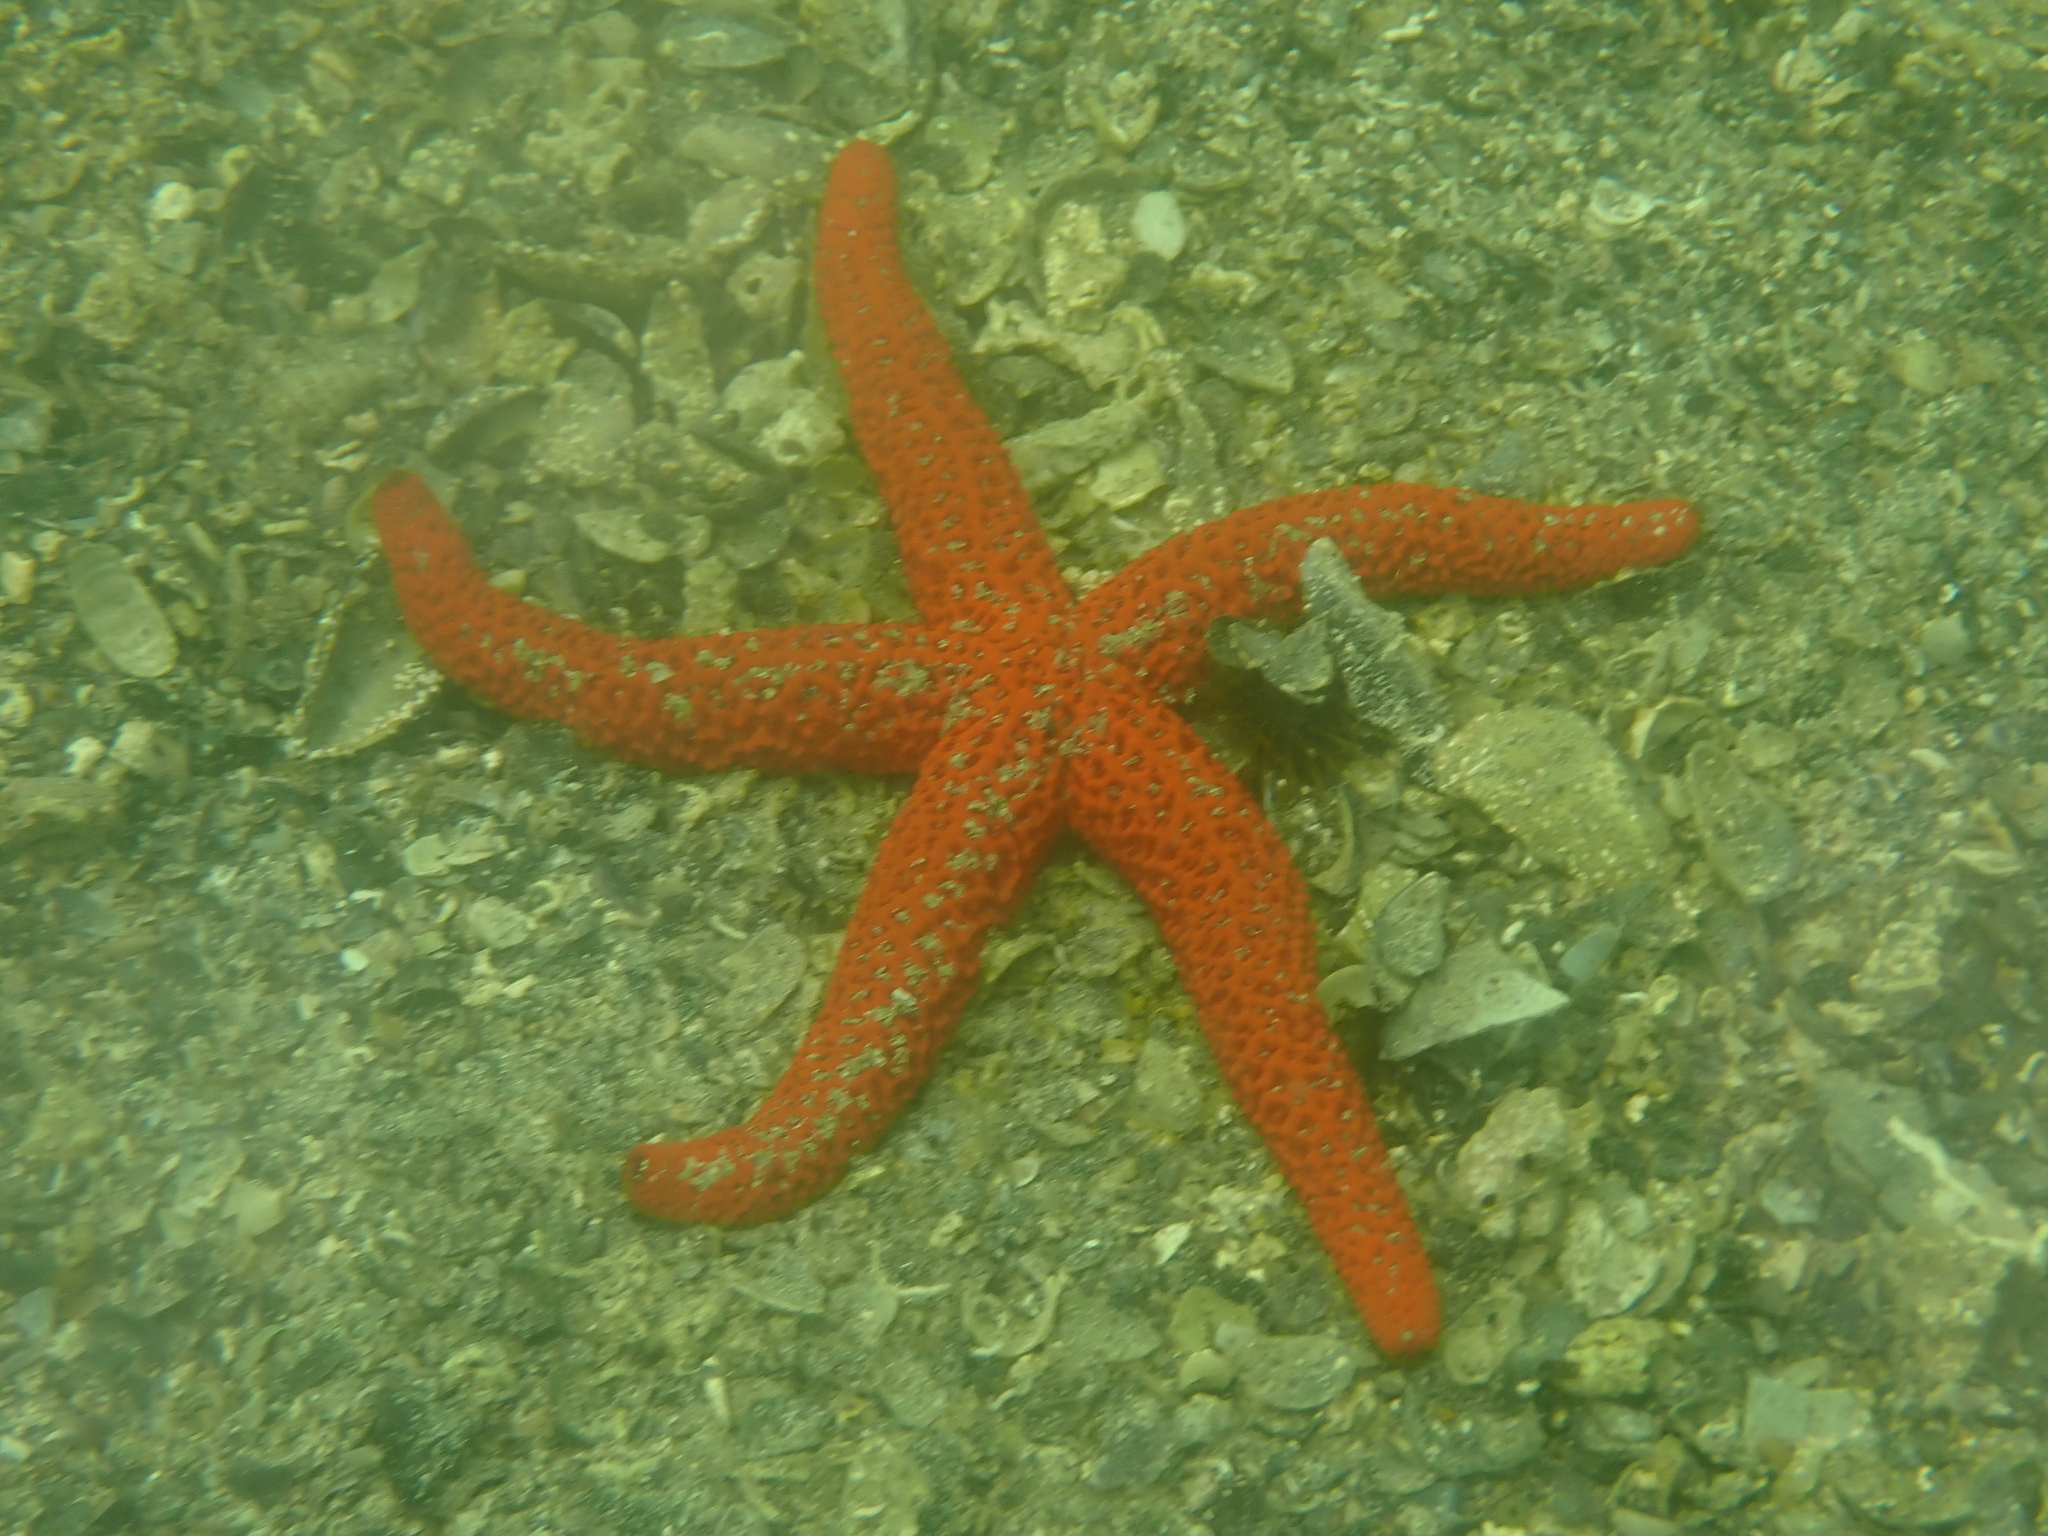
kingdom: Animalia
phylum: Echinodermata
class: Asteroidea
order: Spinulosida
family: Echinasteridae
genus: Echinaster
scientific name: Echinaster sepositus
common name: Red starfish
